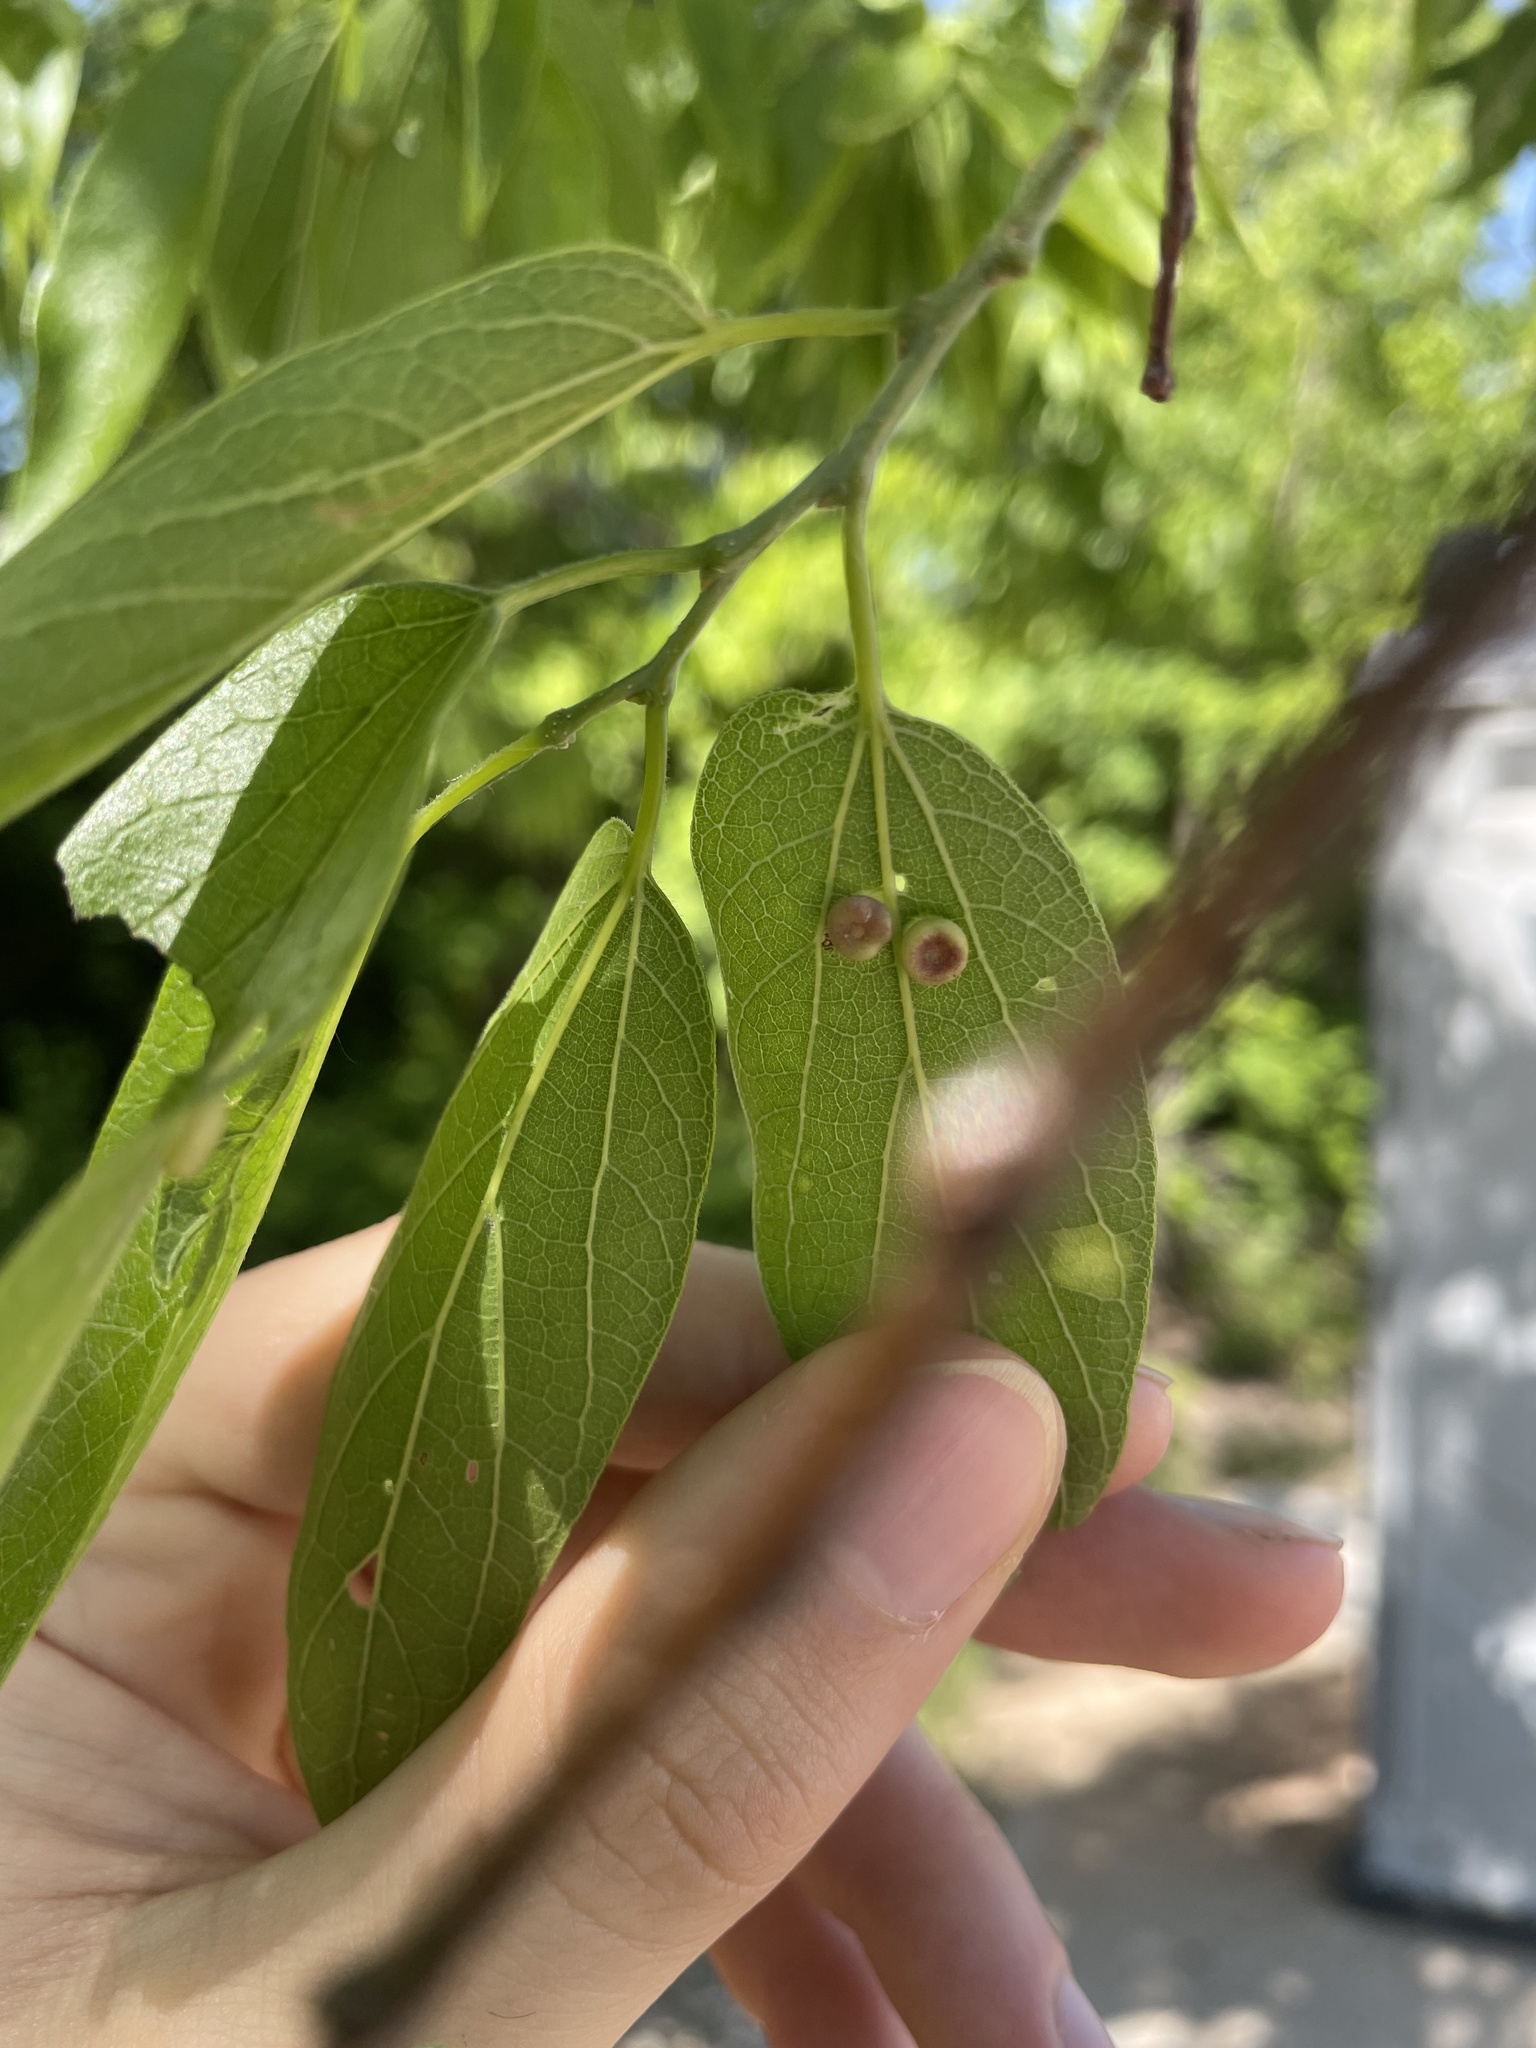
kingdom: Animalia
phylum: Arthropoda
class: Insecta
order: Hemiptera
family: Aphalaridae
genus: Pachypsylla
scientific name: Pachypsylla celtidismamma
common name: Hackberry nipplegall psyllid
